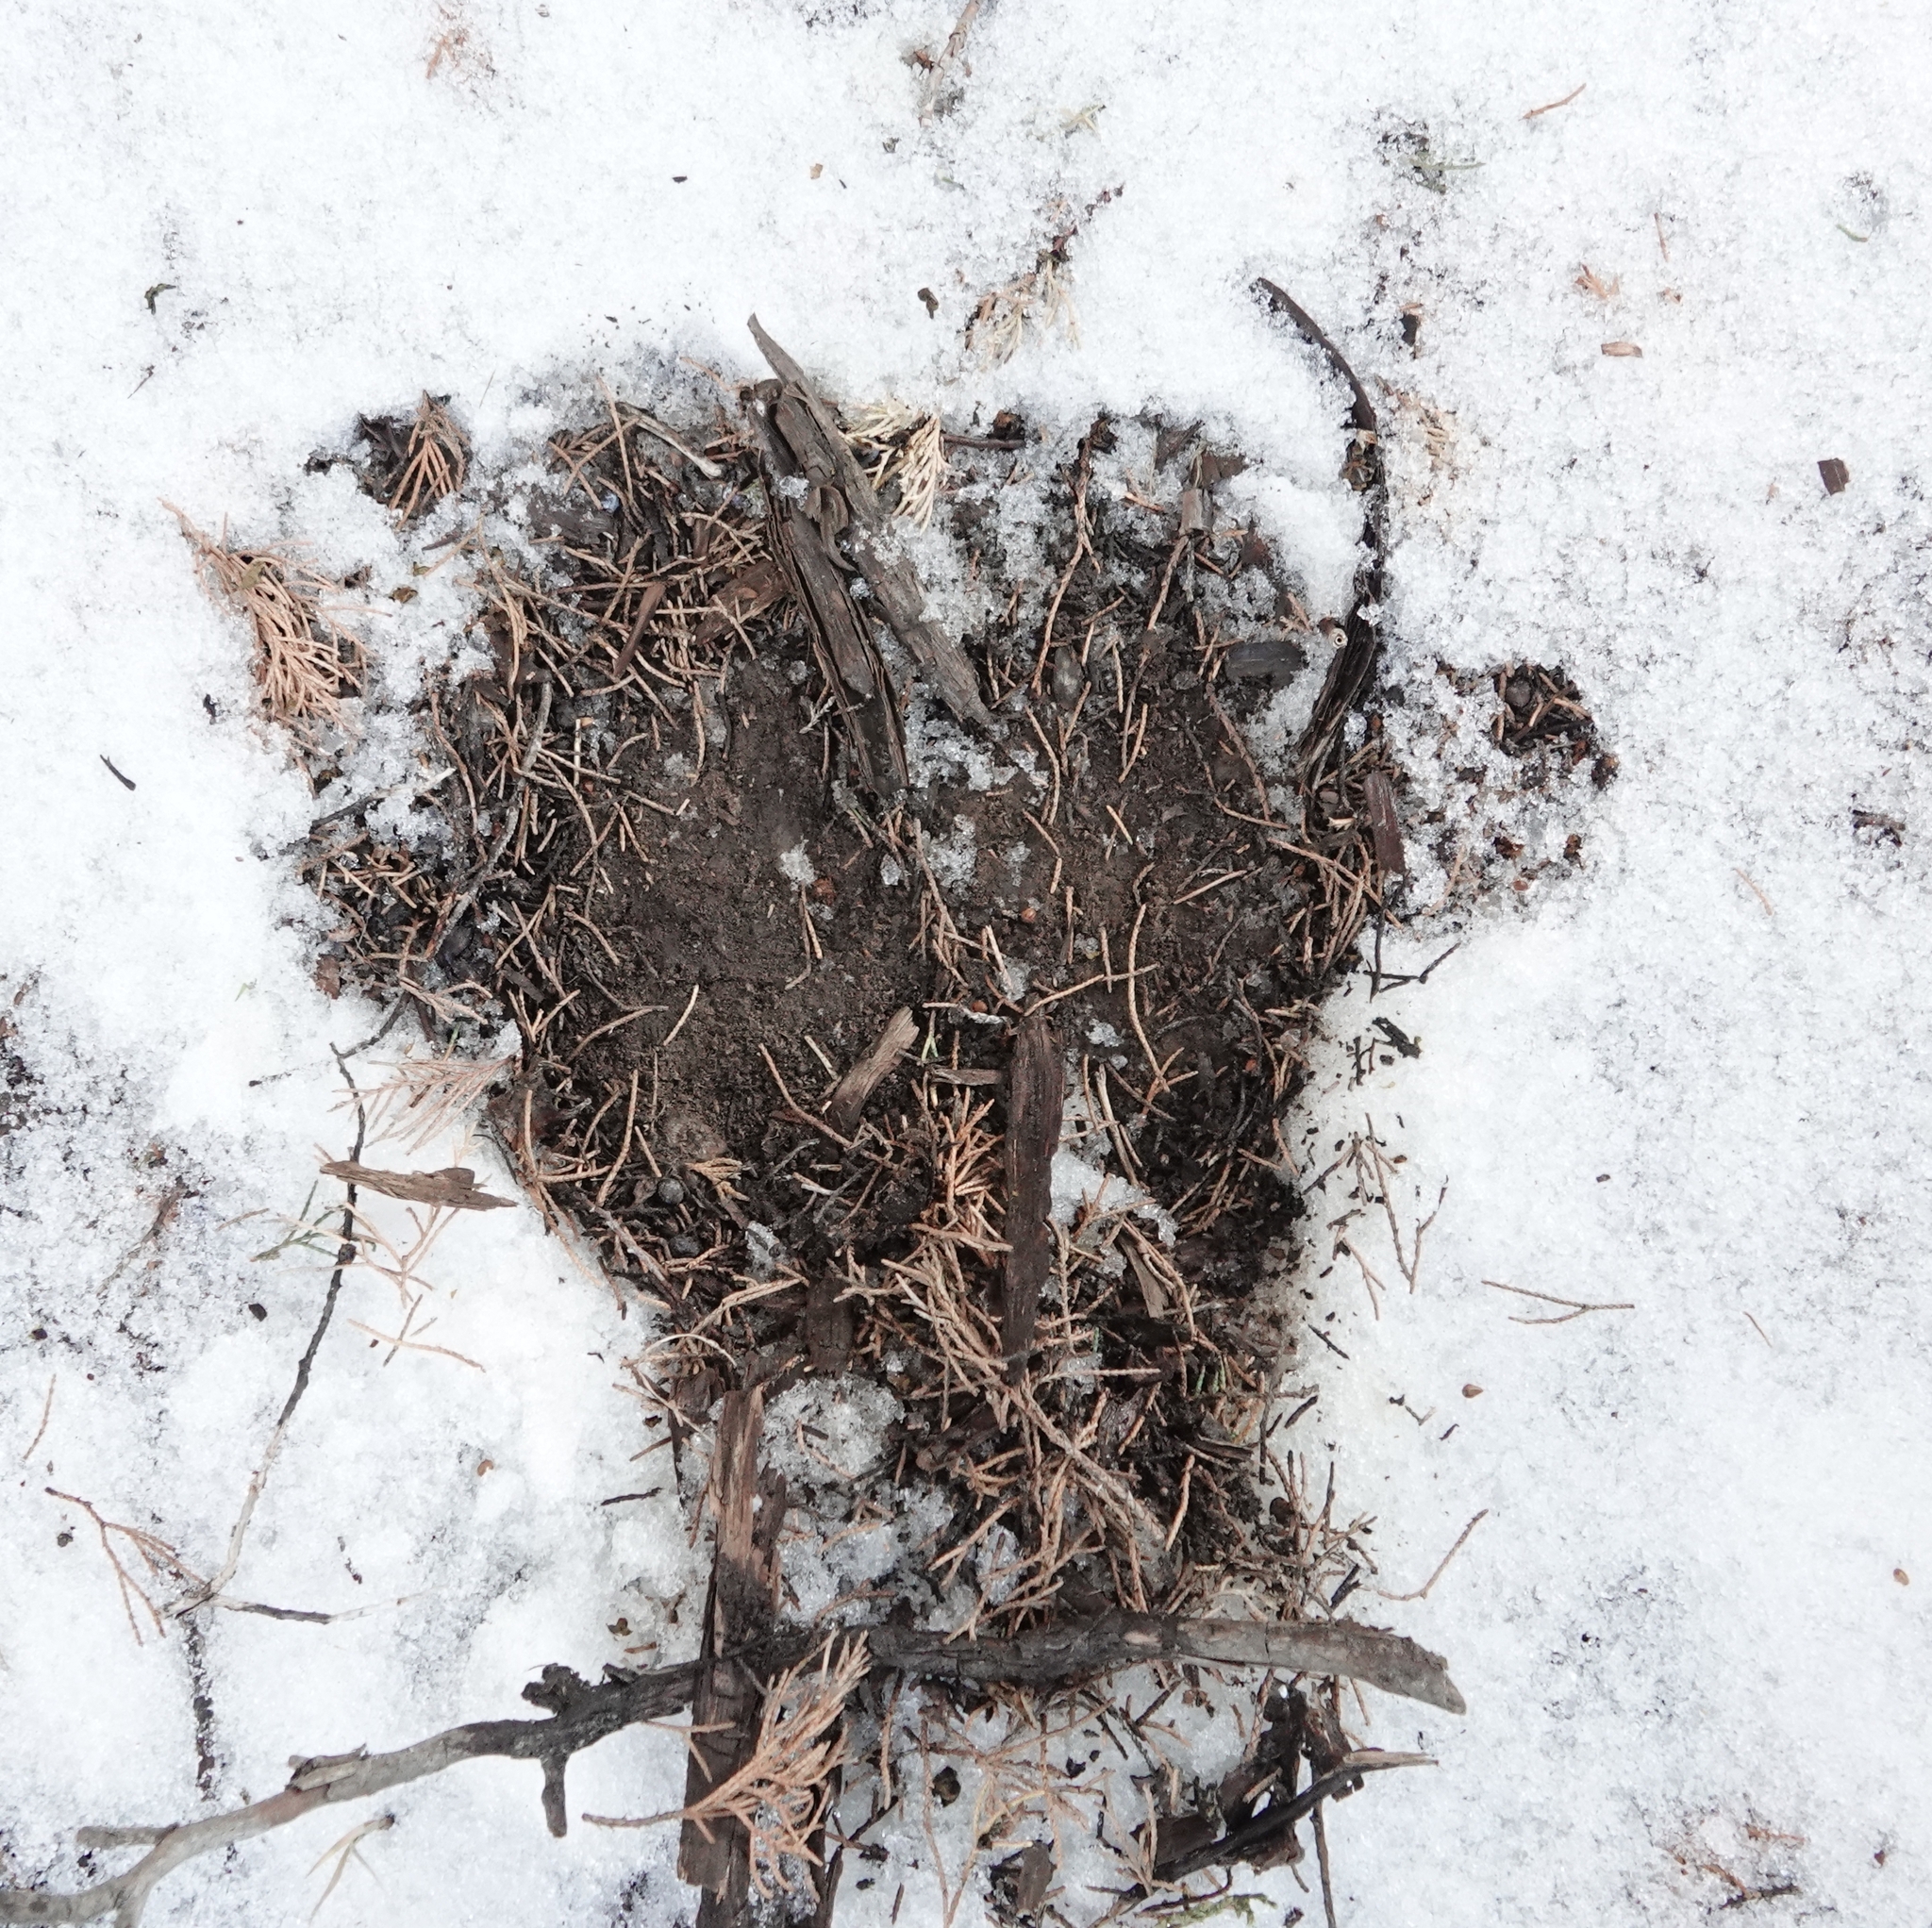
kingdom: Animalia
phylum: Chordata
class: Mammalia
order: Carnivora
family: Felidae
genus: Puma
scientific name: Puma concolor
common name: Puma
